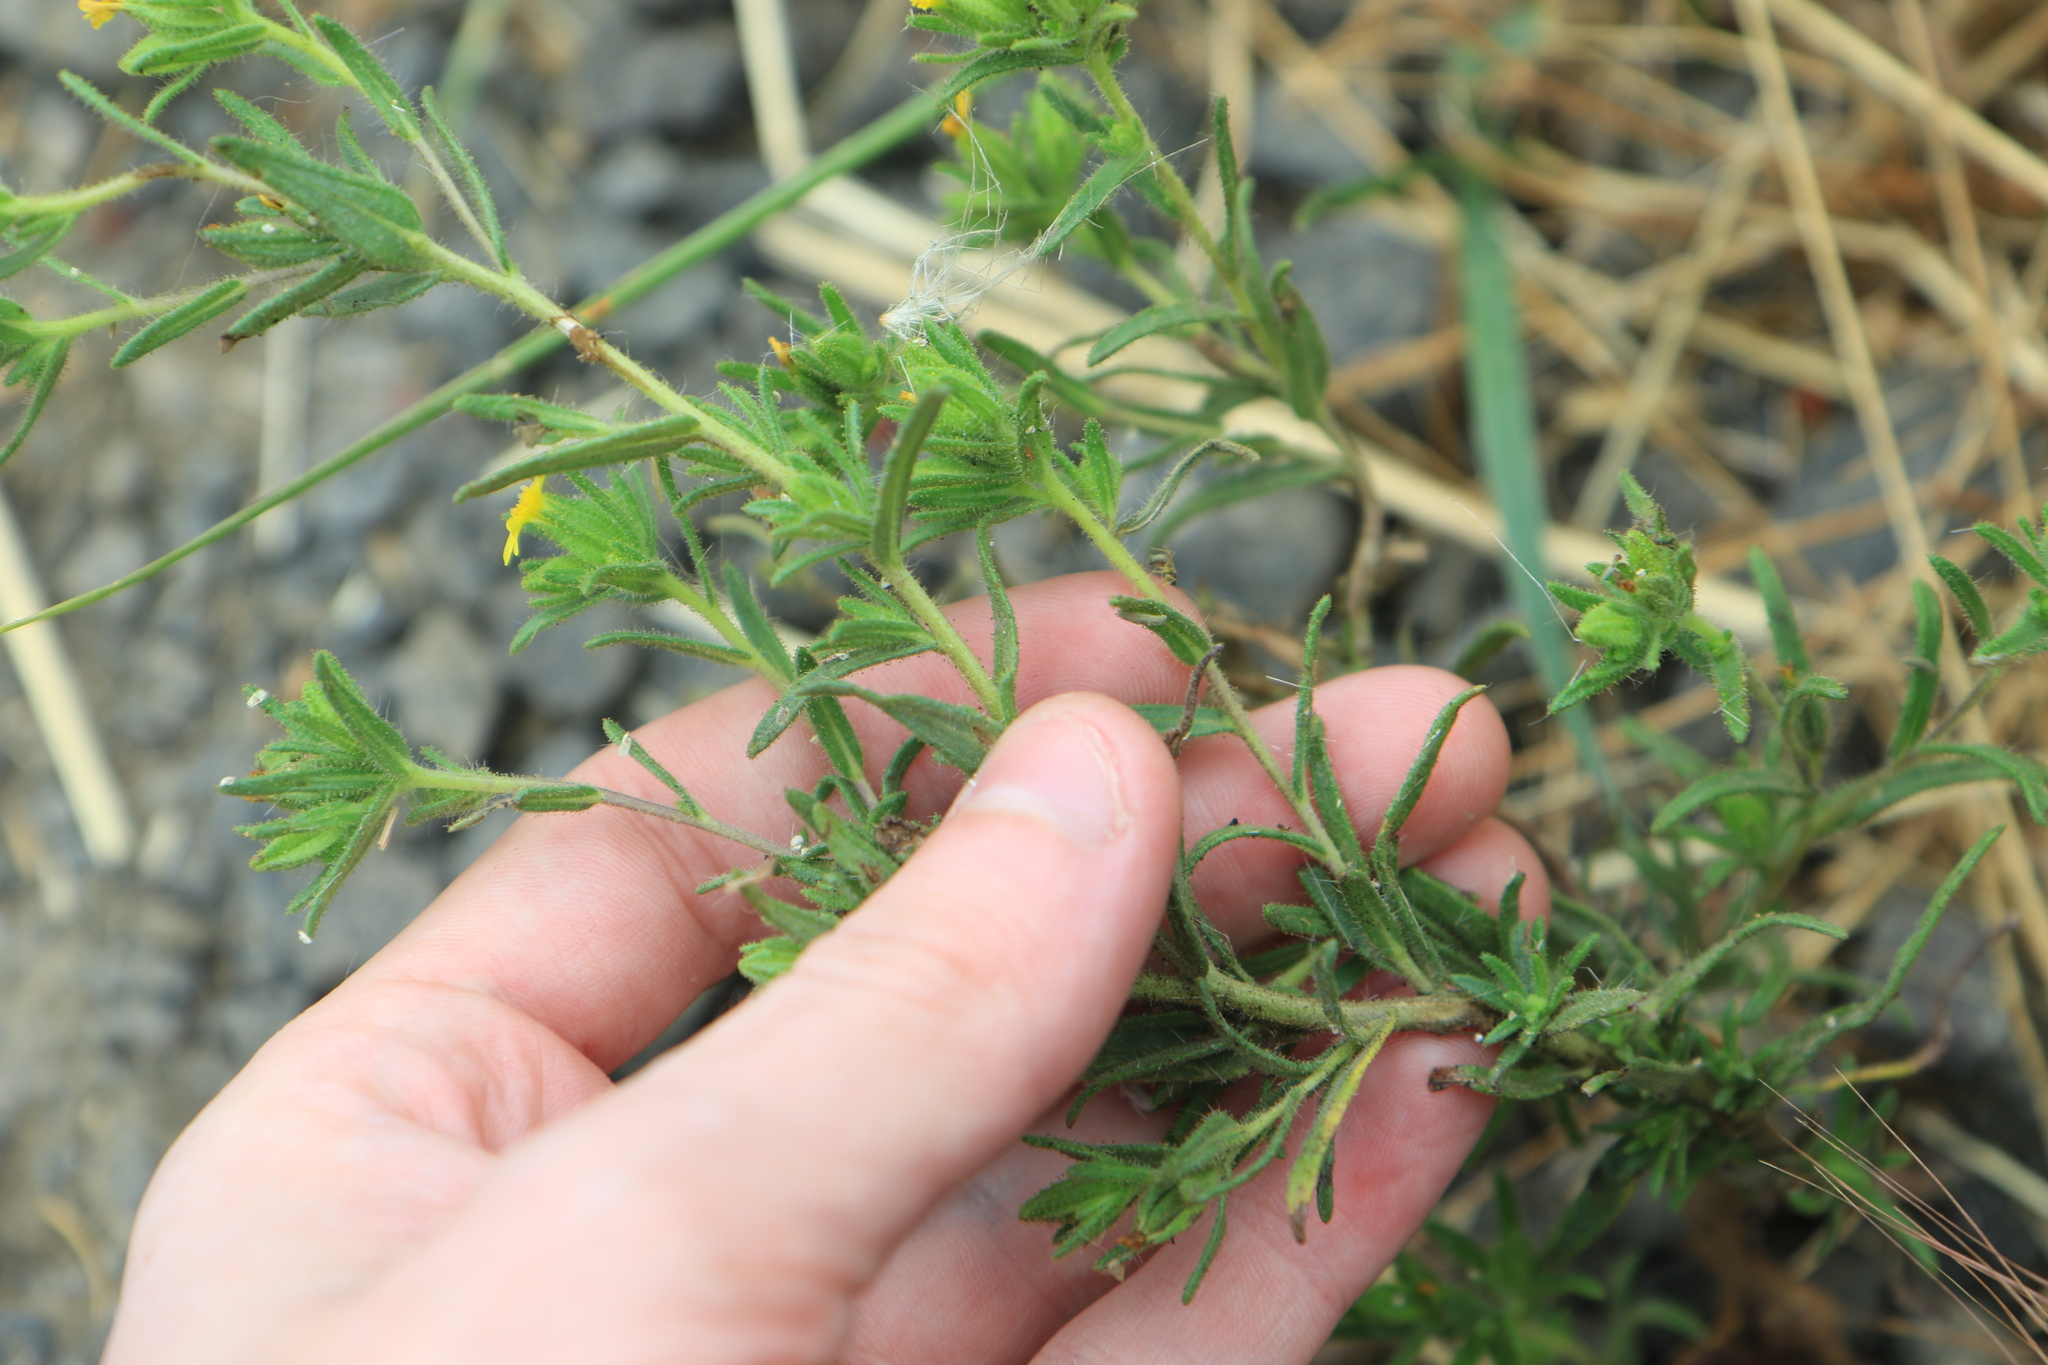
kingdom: Plantae
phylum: Tracheophyta
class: Magnoliopsida
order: Asterales
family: Asteraceae
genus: Madia
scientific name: Madia glomerata
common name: Mountain tarweed
